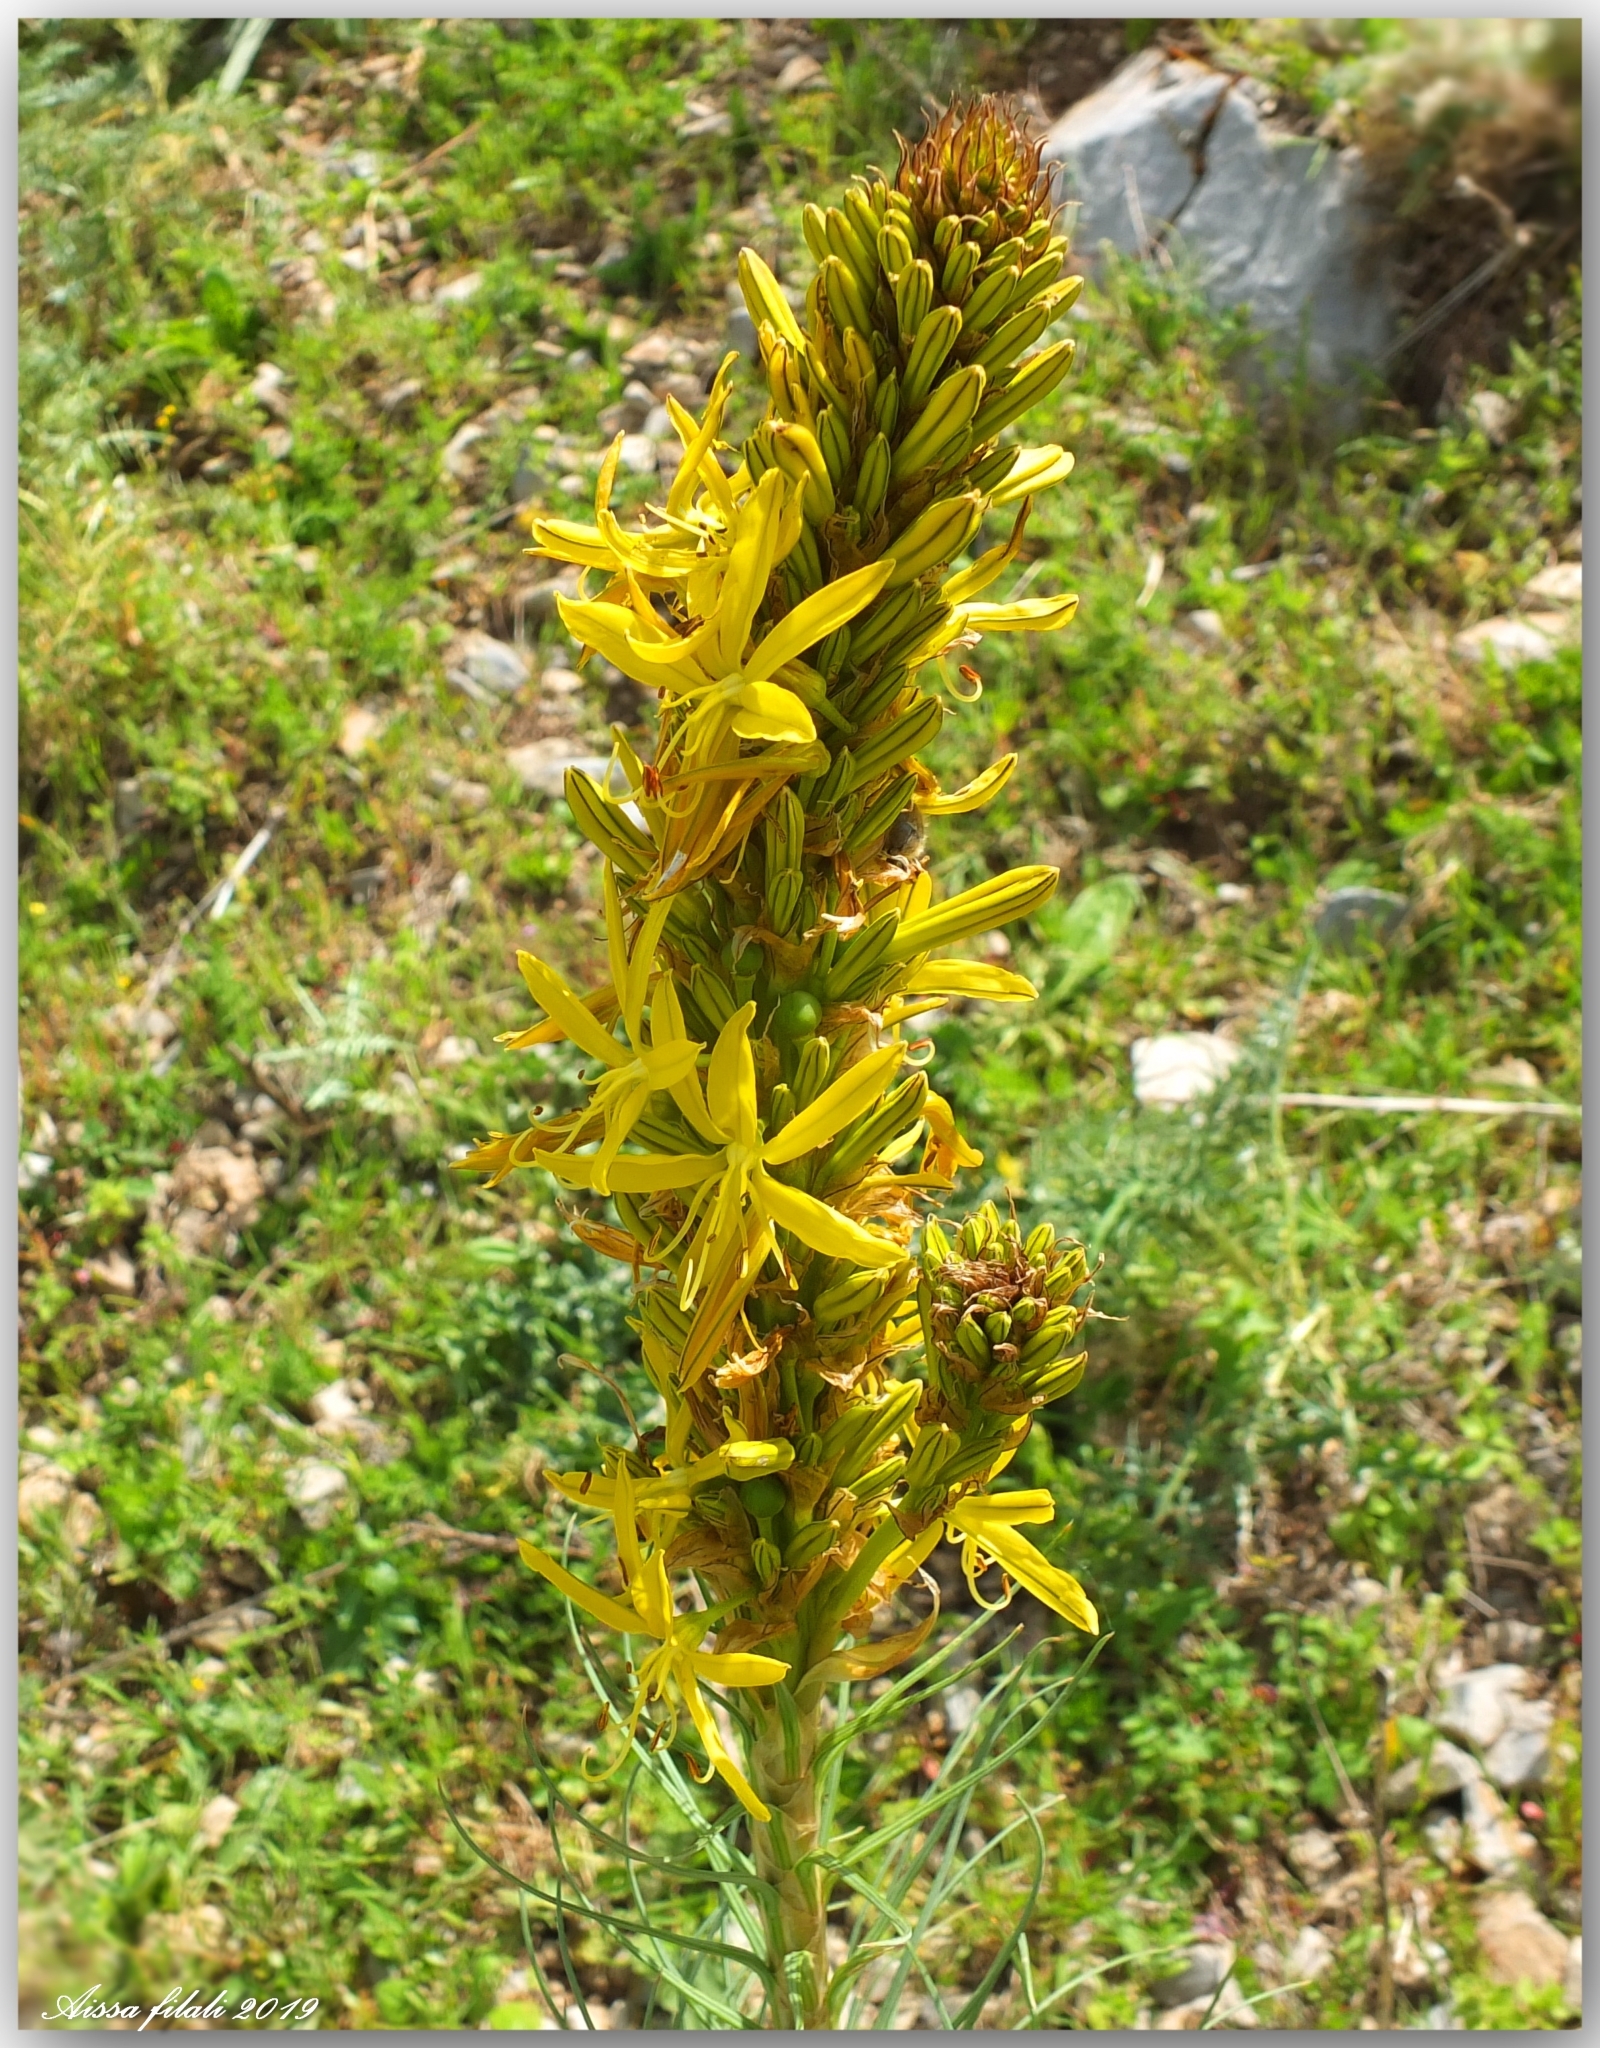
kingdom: Plantae
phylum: Tracheophyta
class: Liliopsida
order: Asparagales
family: Asphodelaceae
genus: Asphodeline
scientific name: Asphodeline lutea
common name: Yellow asphodel
